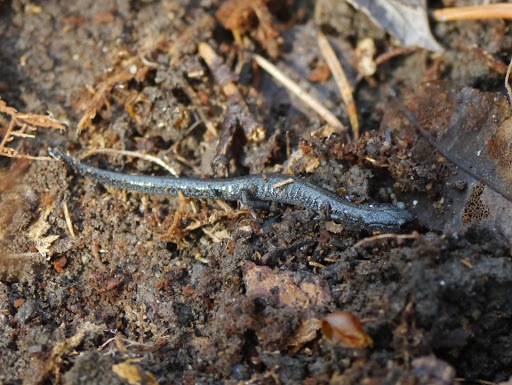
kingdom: Animalia
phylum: Chordata
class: Amphibia
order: Caudata
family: Plethodontidae
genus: Plethodon
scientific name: Plethodon cinereus
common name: Redback salamander
